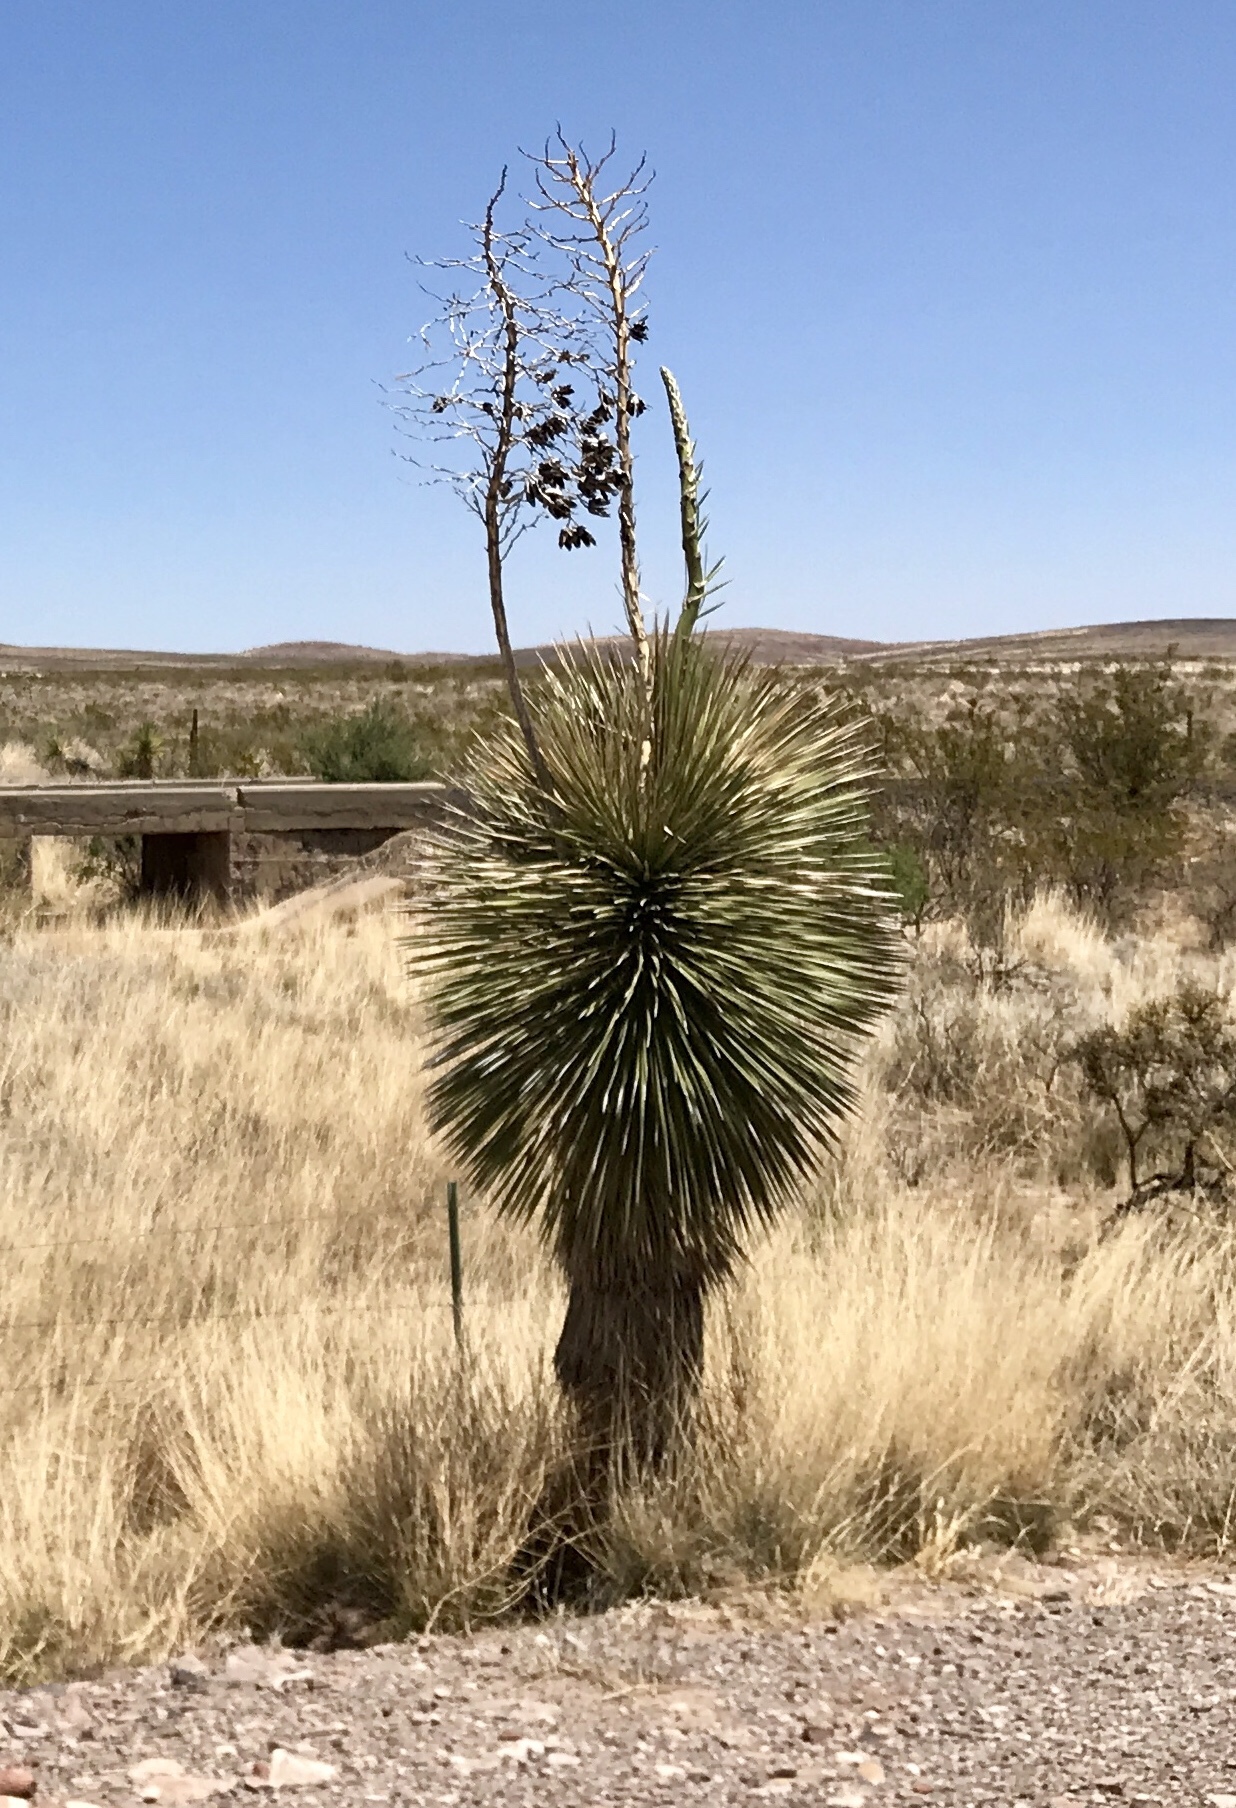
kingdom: Plantae
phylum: Tracheophyta
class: Liliopsida
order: Asparagales
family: Asparagaceae
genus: Yucca
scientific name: Yucca elata
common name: Palmella
